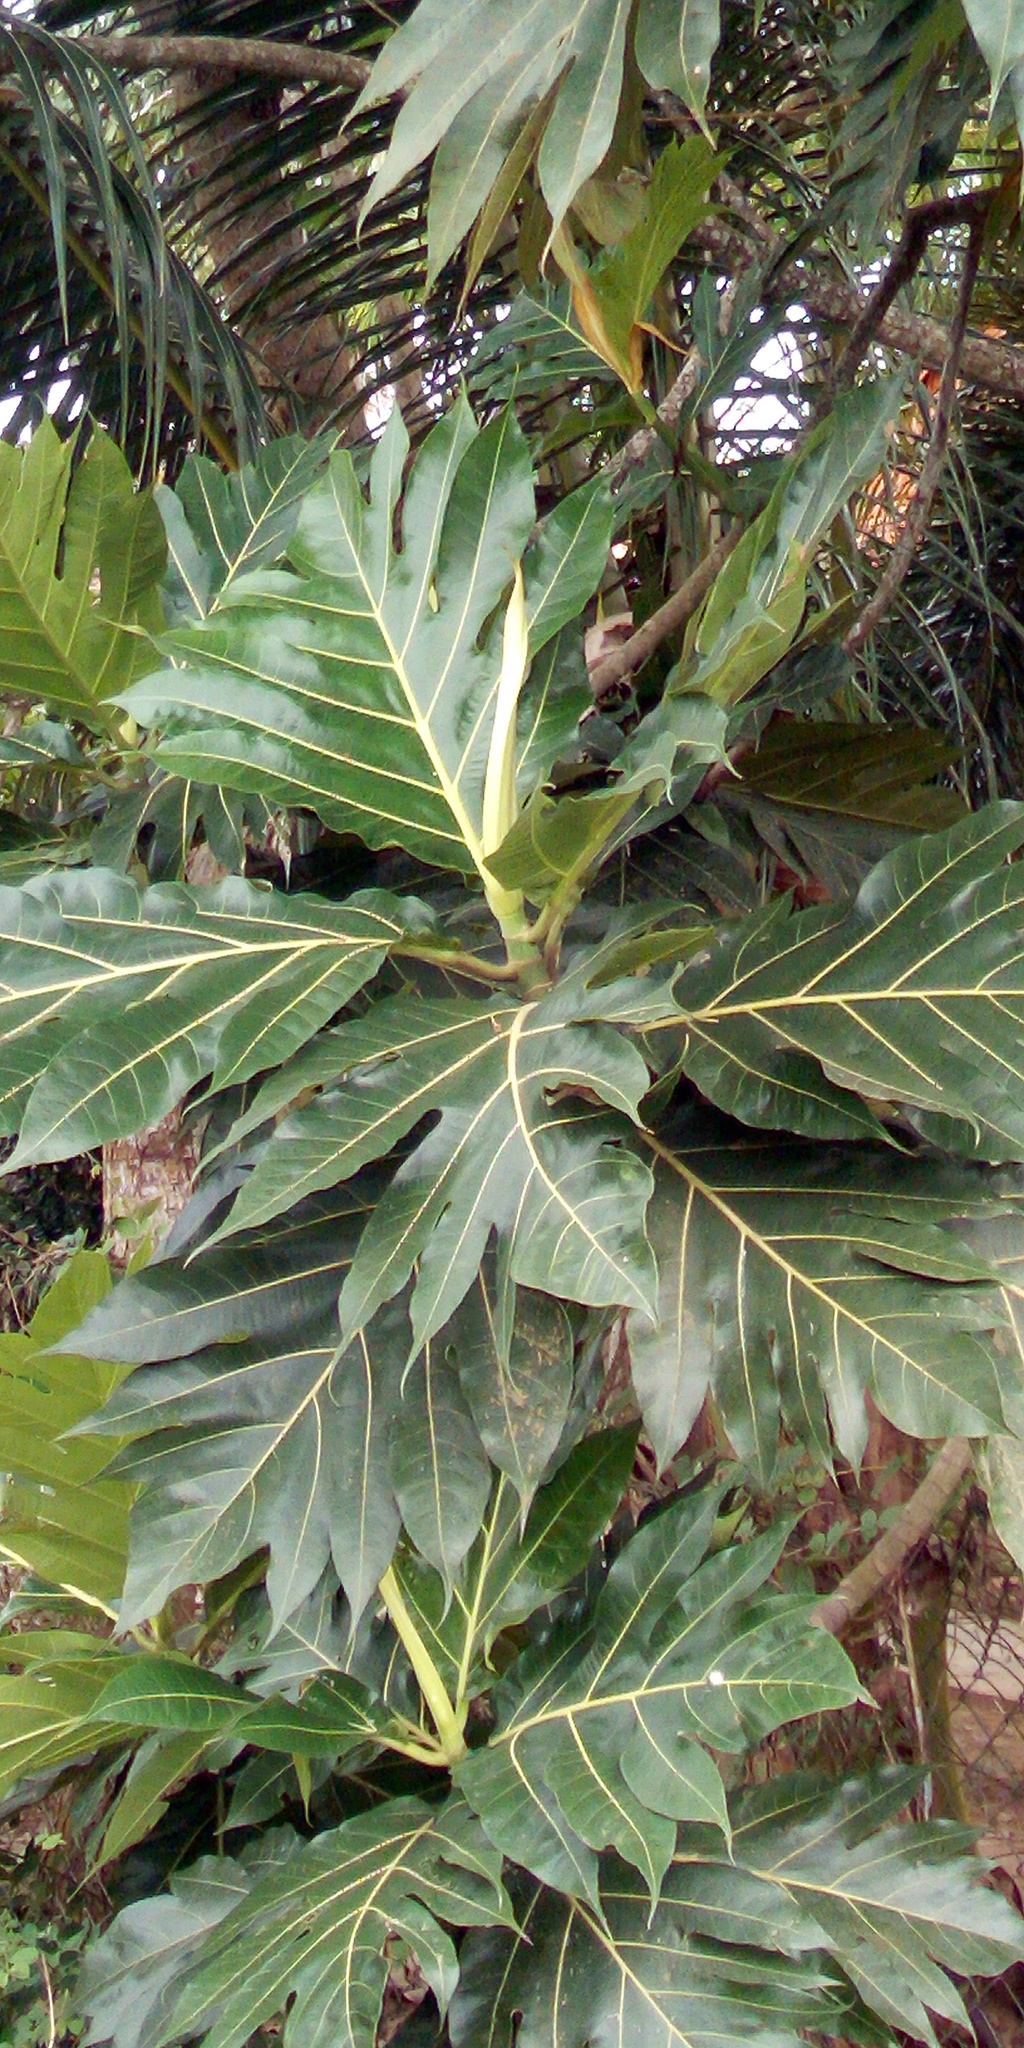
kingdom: Plantae
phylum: Tracheophyta
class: Magnoliopsida
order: Rosales
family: Moraceae
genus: Artocarpus
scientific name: Artocarpus altilis
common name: Breadfruit
